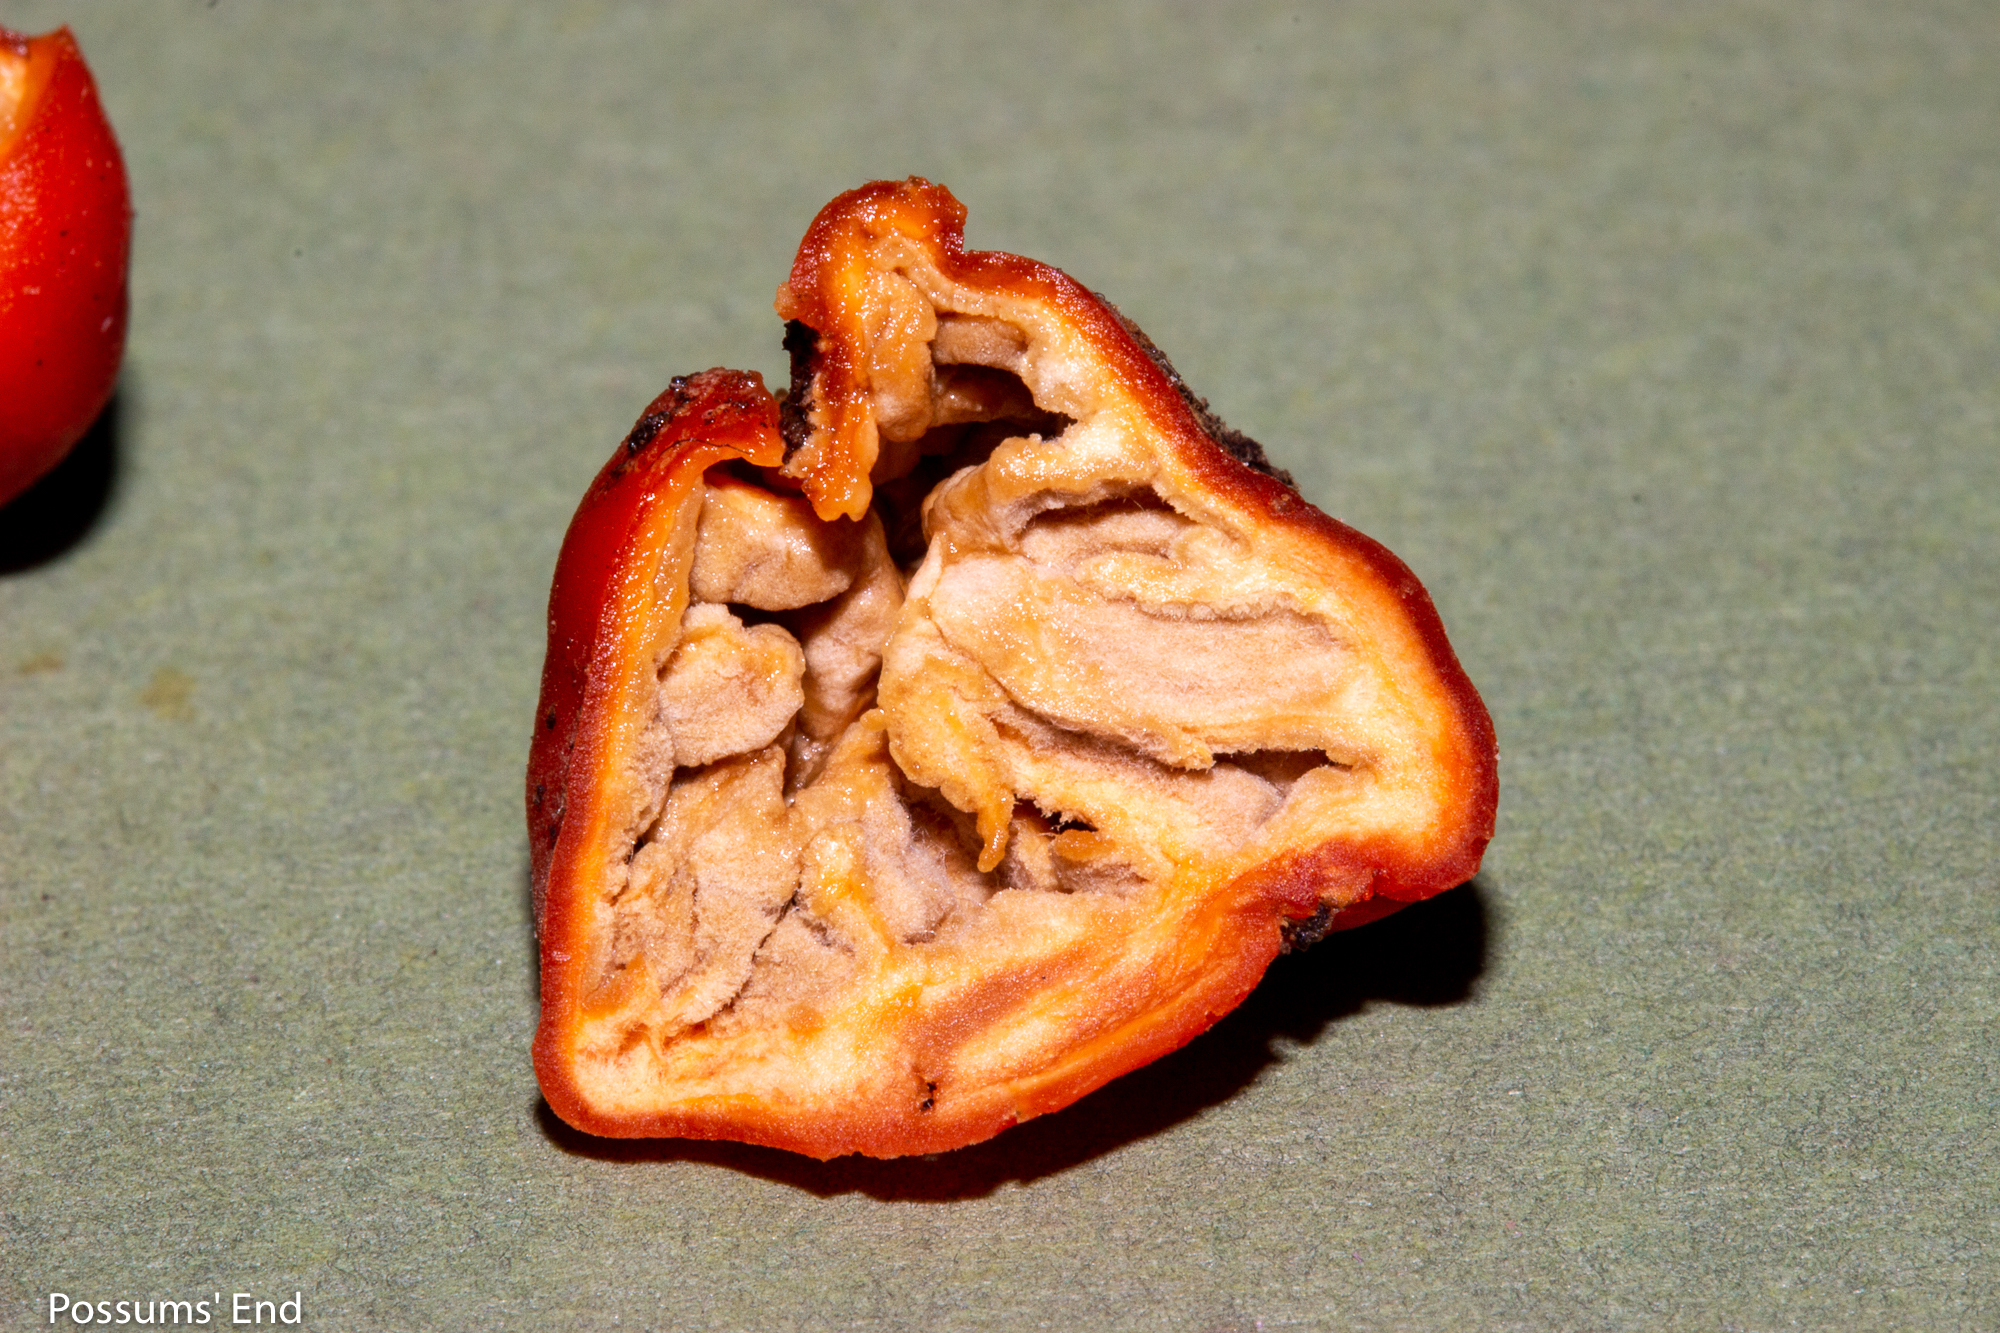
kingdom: Fungi
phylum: Ascomycota
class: Pezizomycetes
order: Pezizales
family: Pyronemataceae
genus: Paurocotylis
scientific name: Paurocotylis pila
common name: Scarlet berry truffle
